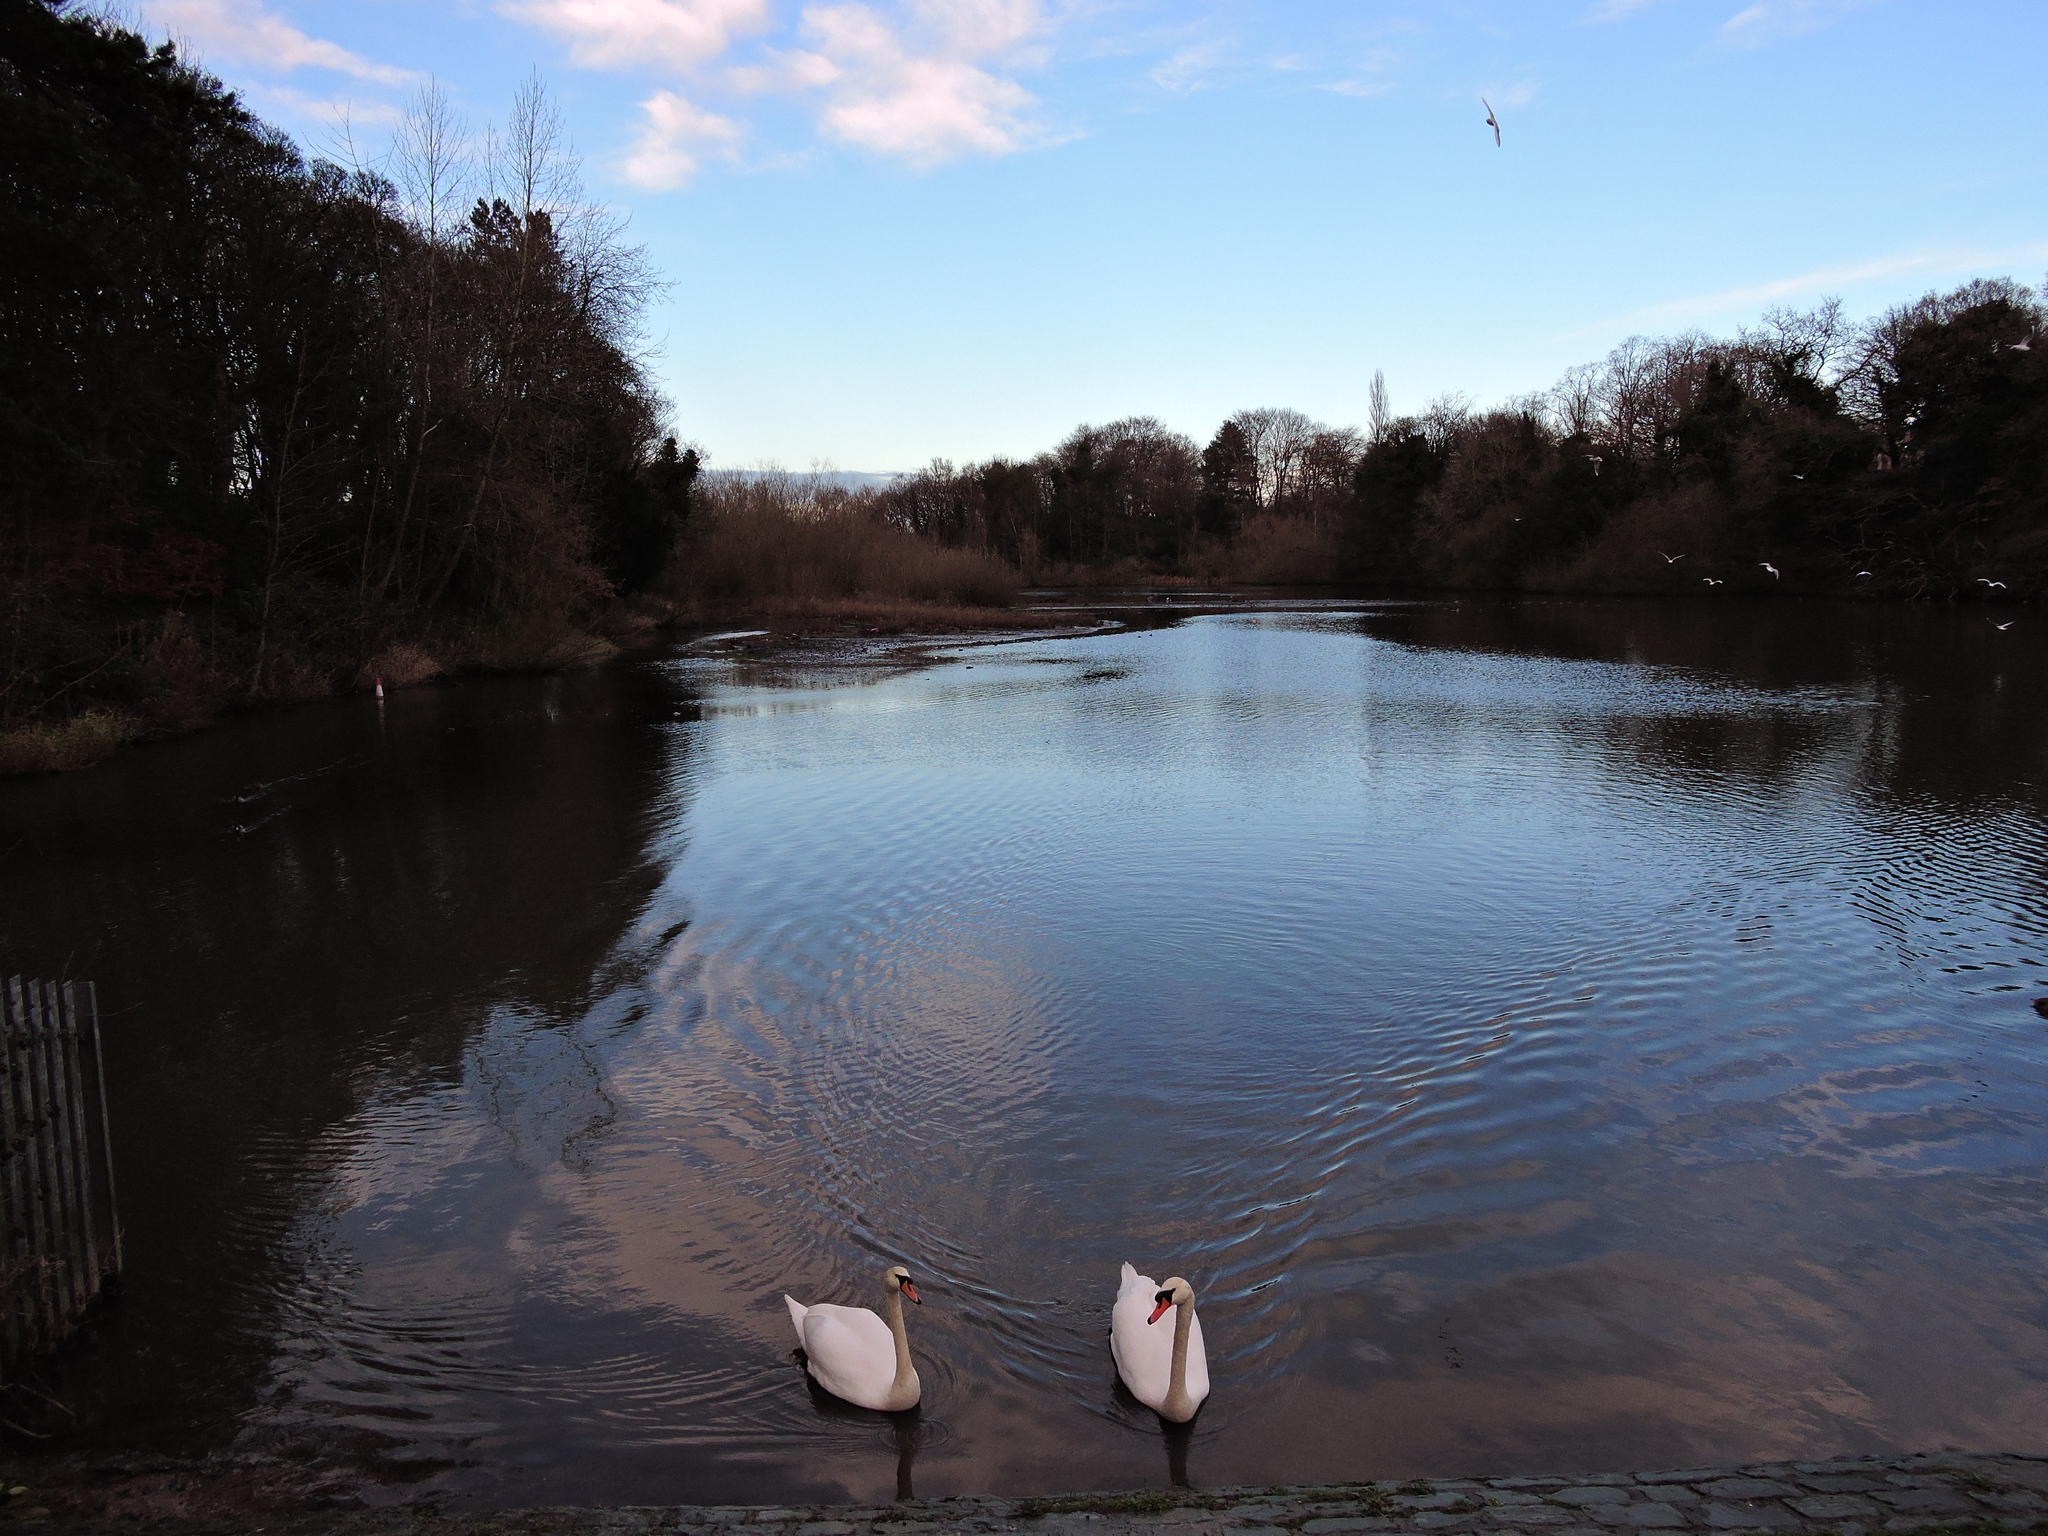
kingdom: Animalia
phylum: Chordata
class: Aves
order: Anseriformes
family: Anatidae
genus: Cygnus
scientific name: Cygnus olor
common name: Mute swan
